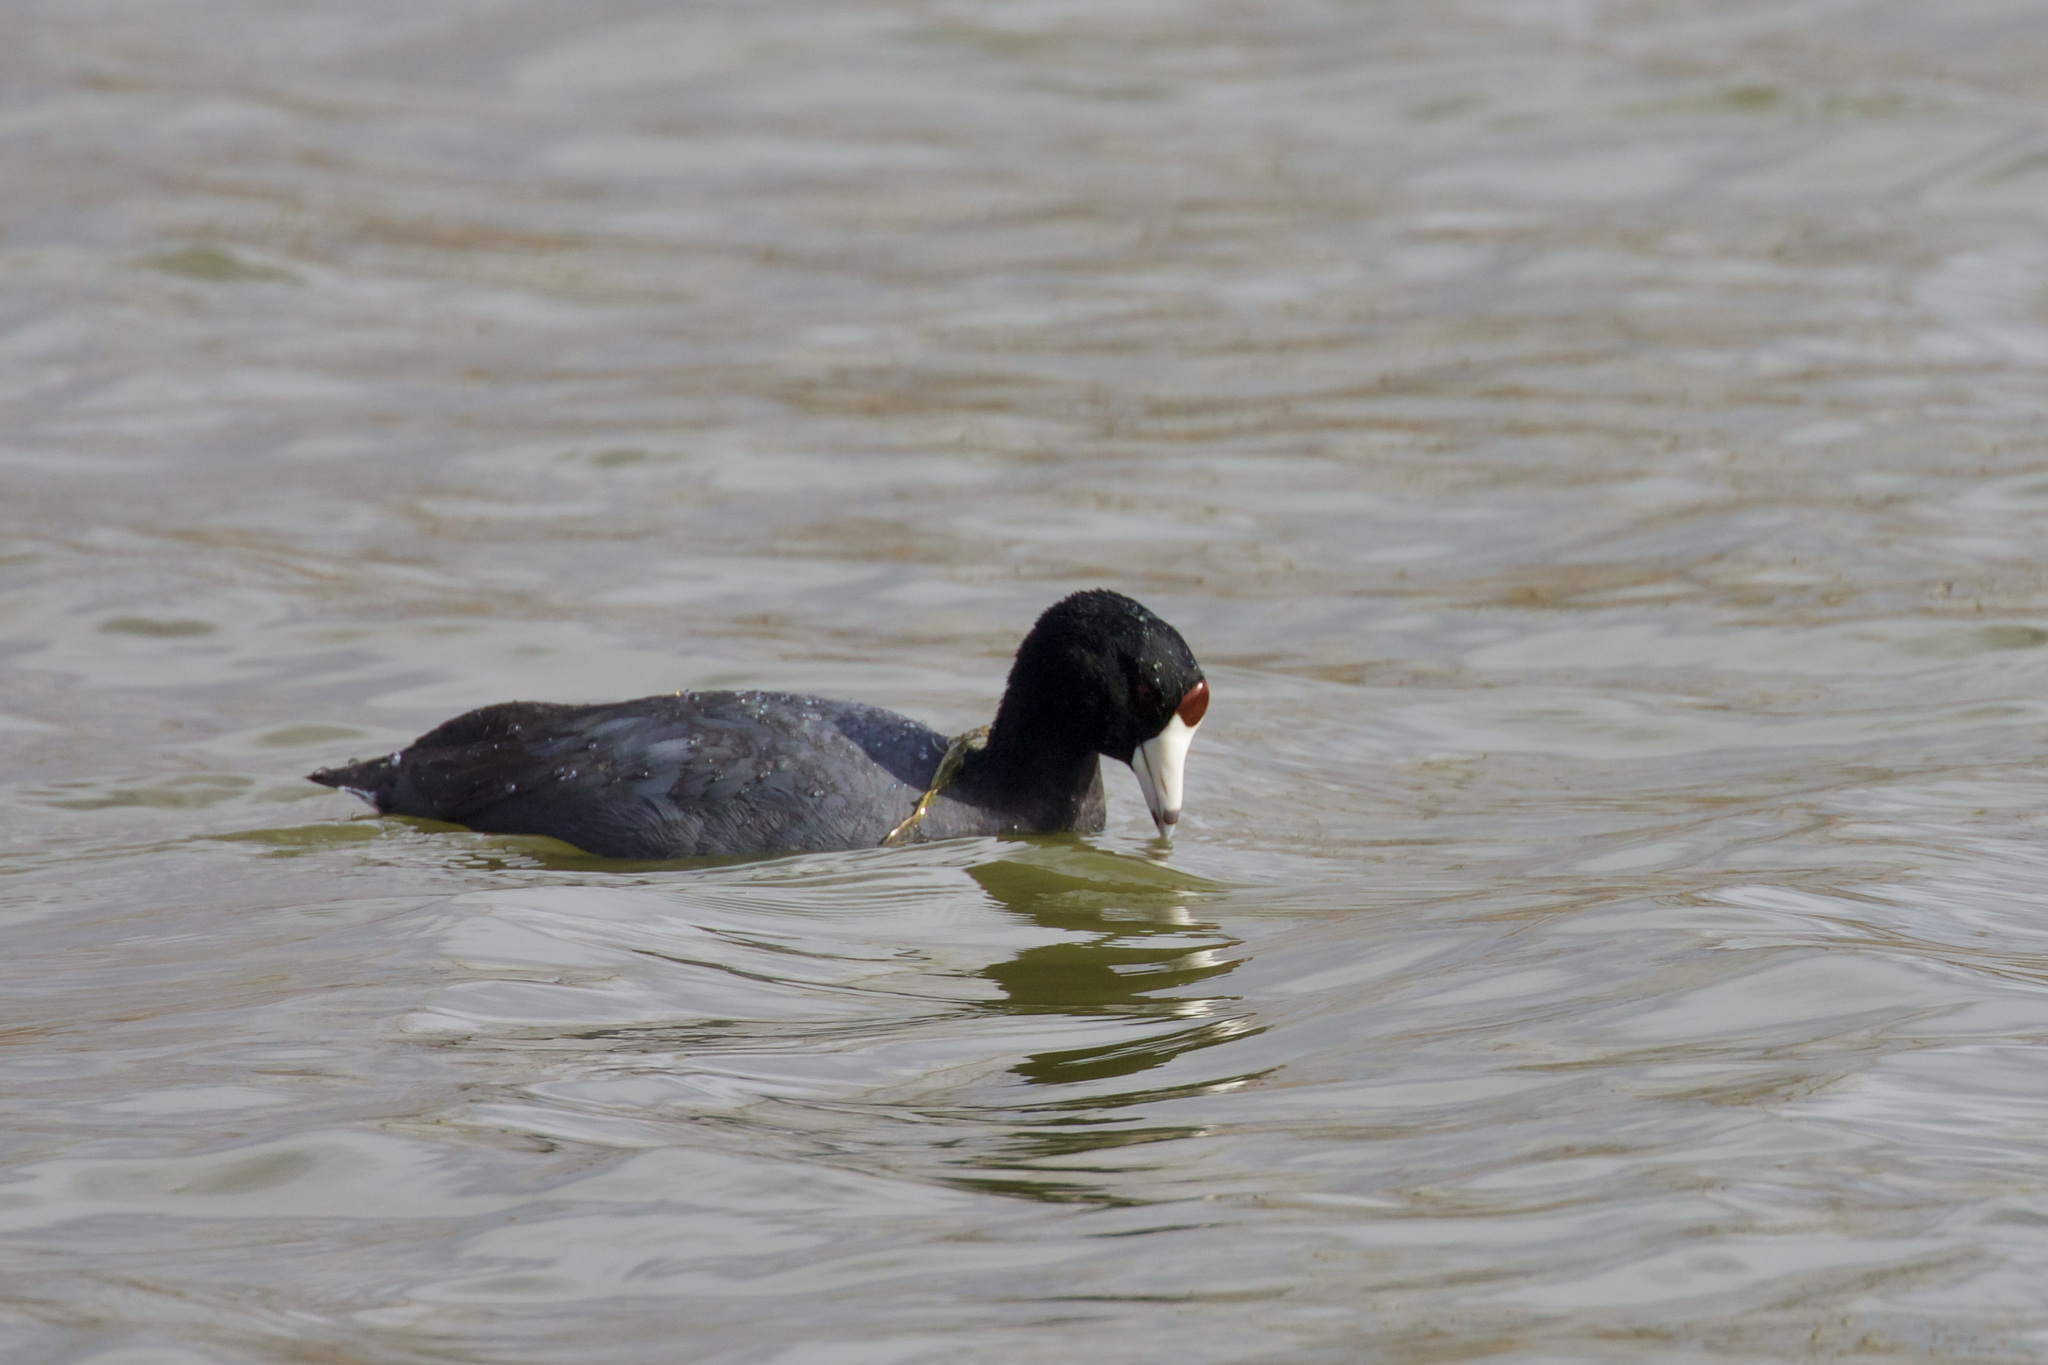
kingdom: Animalia
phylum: Chordata
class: Aves
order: Gruiformes
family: Rallidae
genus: Fulica
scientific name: Fulica americana
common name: American coot
